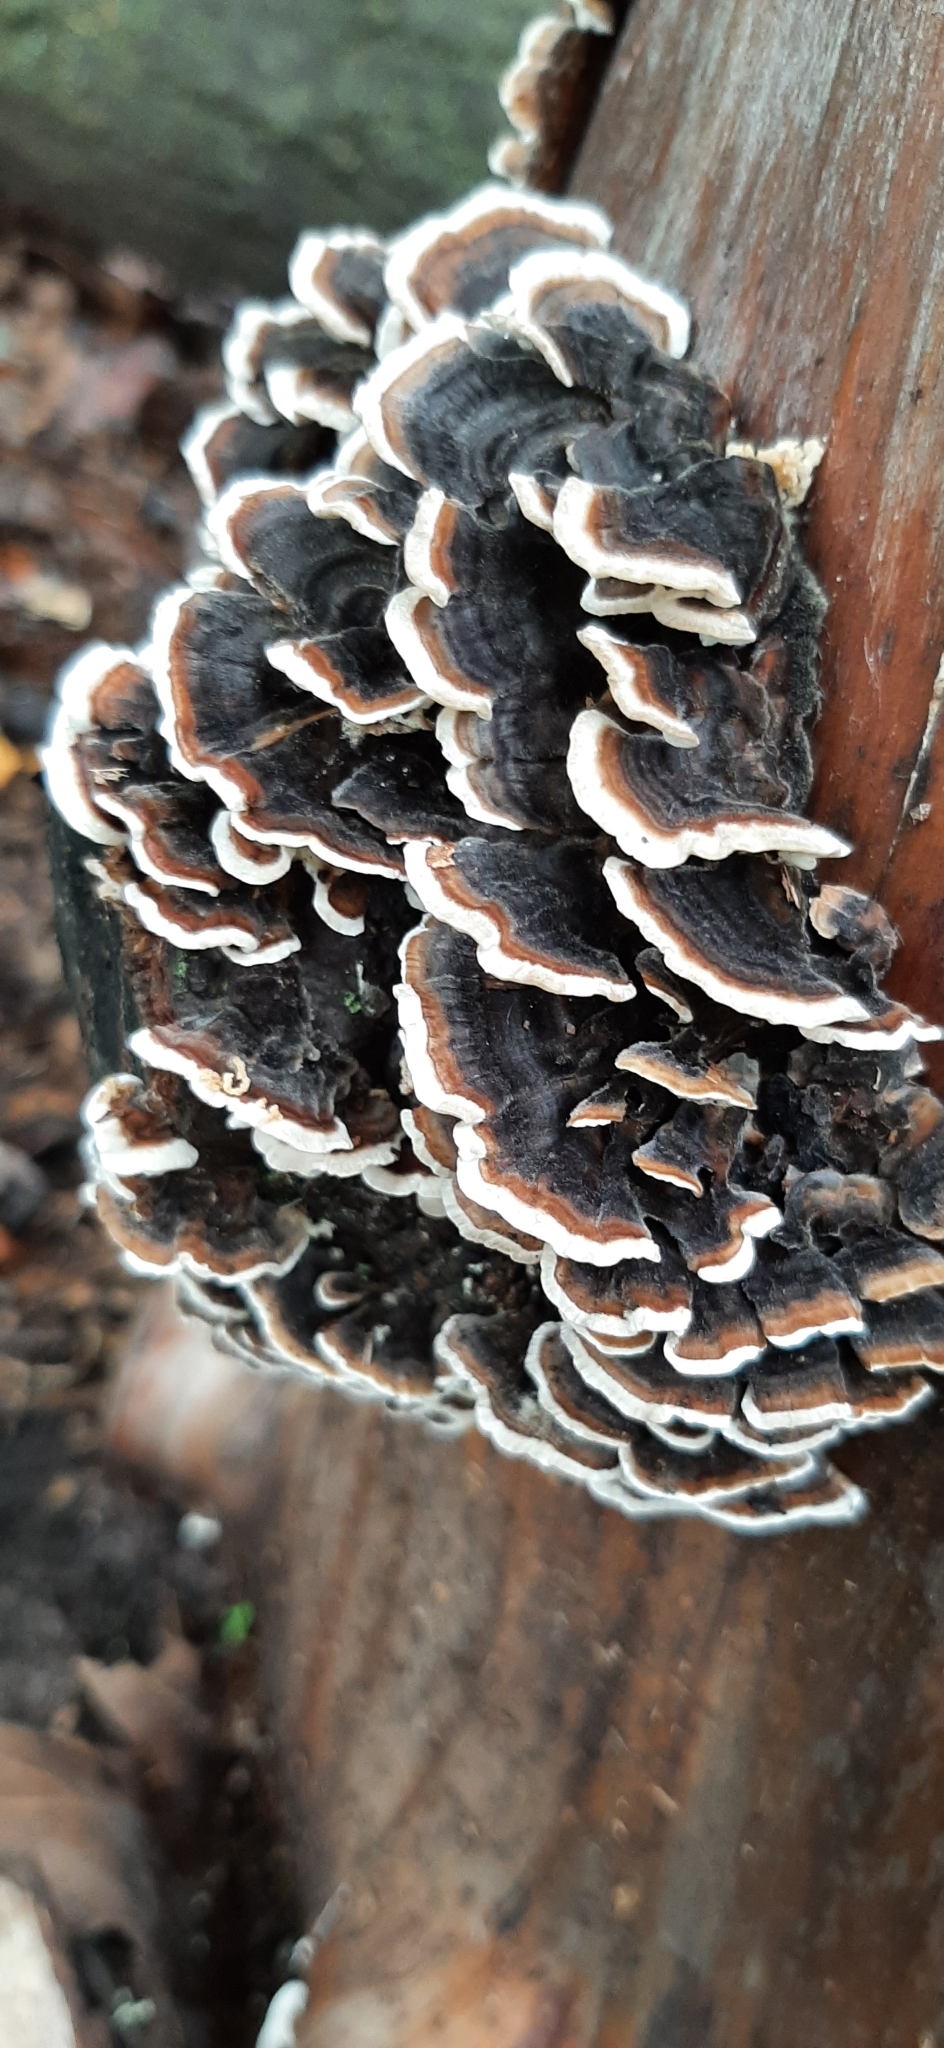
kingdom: Fungi
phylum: Basidiomycota
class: Agaricomycetes
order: Polyporales
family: Polyporaceae
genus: Trametes
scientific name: Trametes versicolor
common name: Turkeytail
